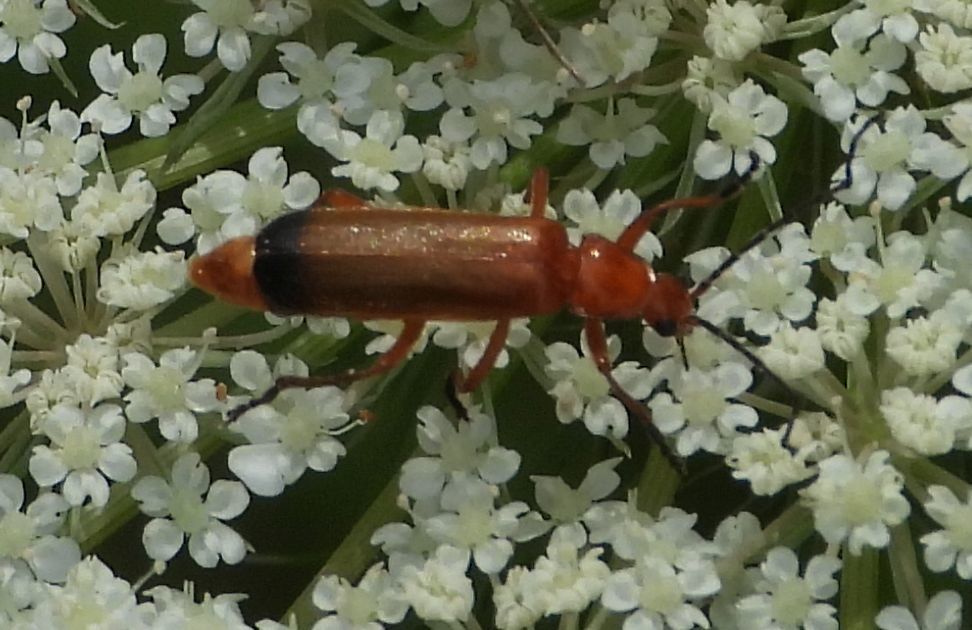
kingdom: Animalia
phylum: Arthropoda
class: Insecta
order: Coleoptera
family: Cantharidae
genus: Rhagonycha
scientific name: Rhagonycha fulva
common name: Common red soldier beetle
